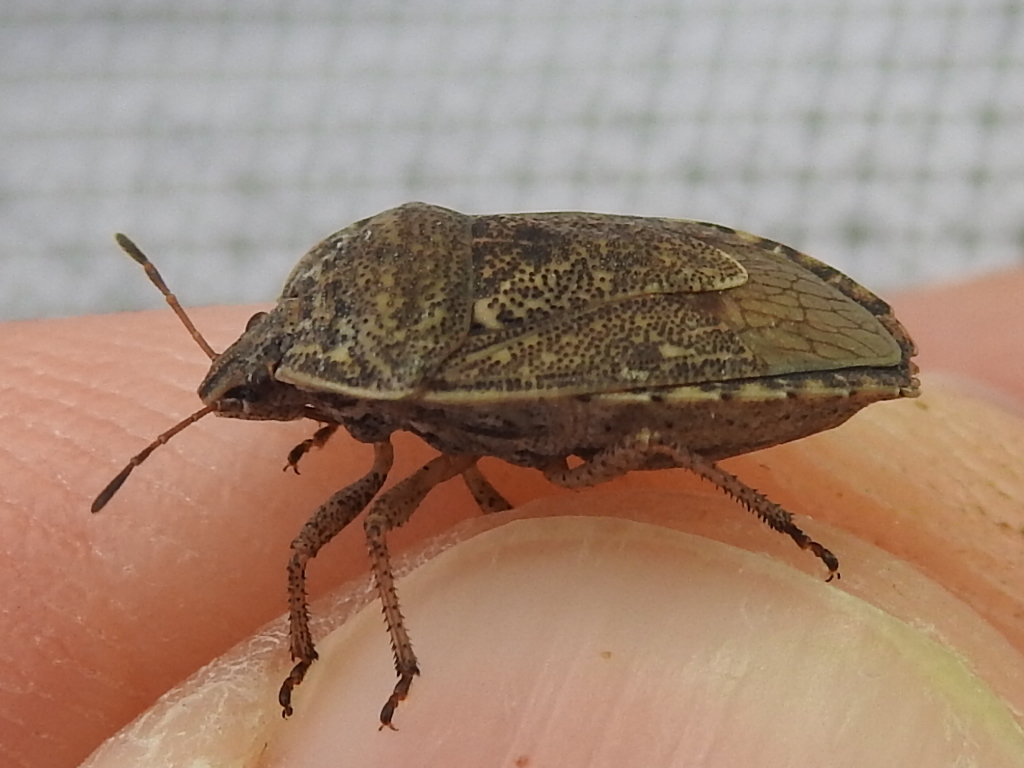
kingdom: Animalia
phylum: Arthropoda
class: Insecta
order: Hemiptera
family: Pentatomidae
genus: Hymenarcys
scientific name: Hymenarcys nervosa
